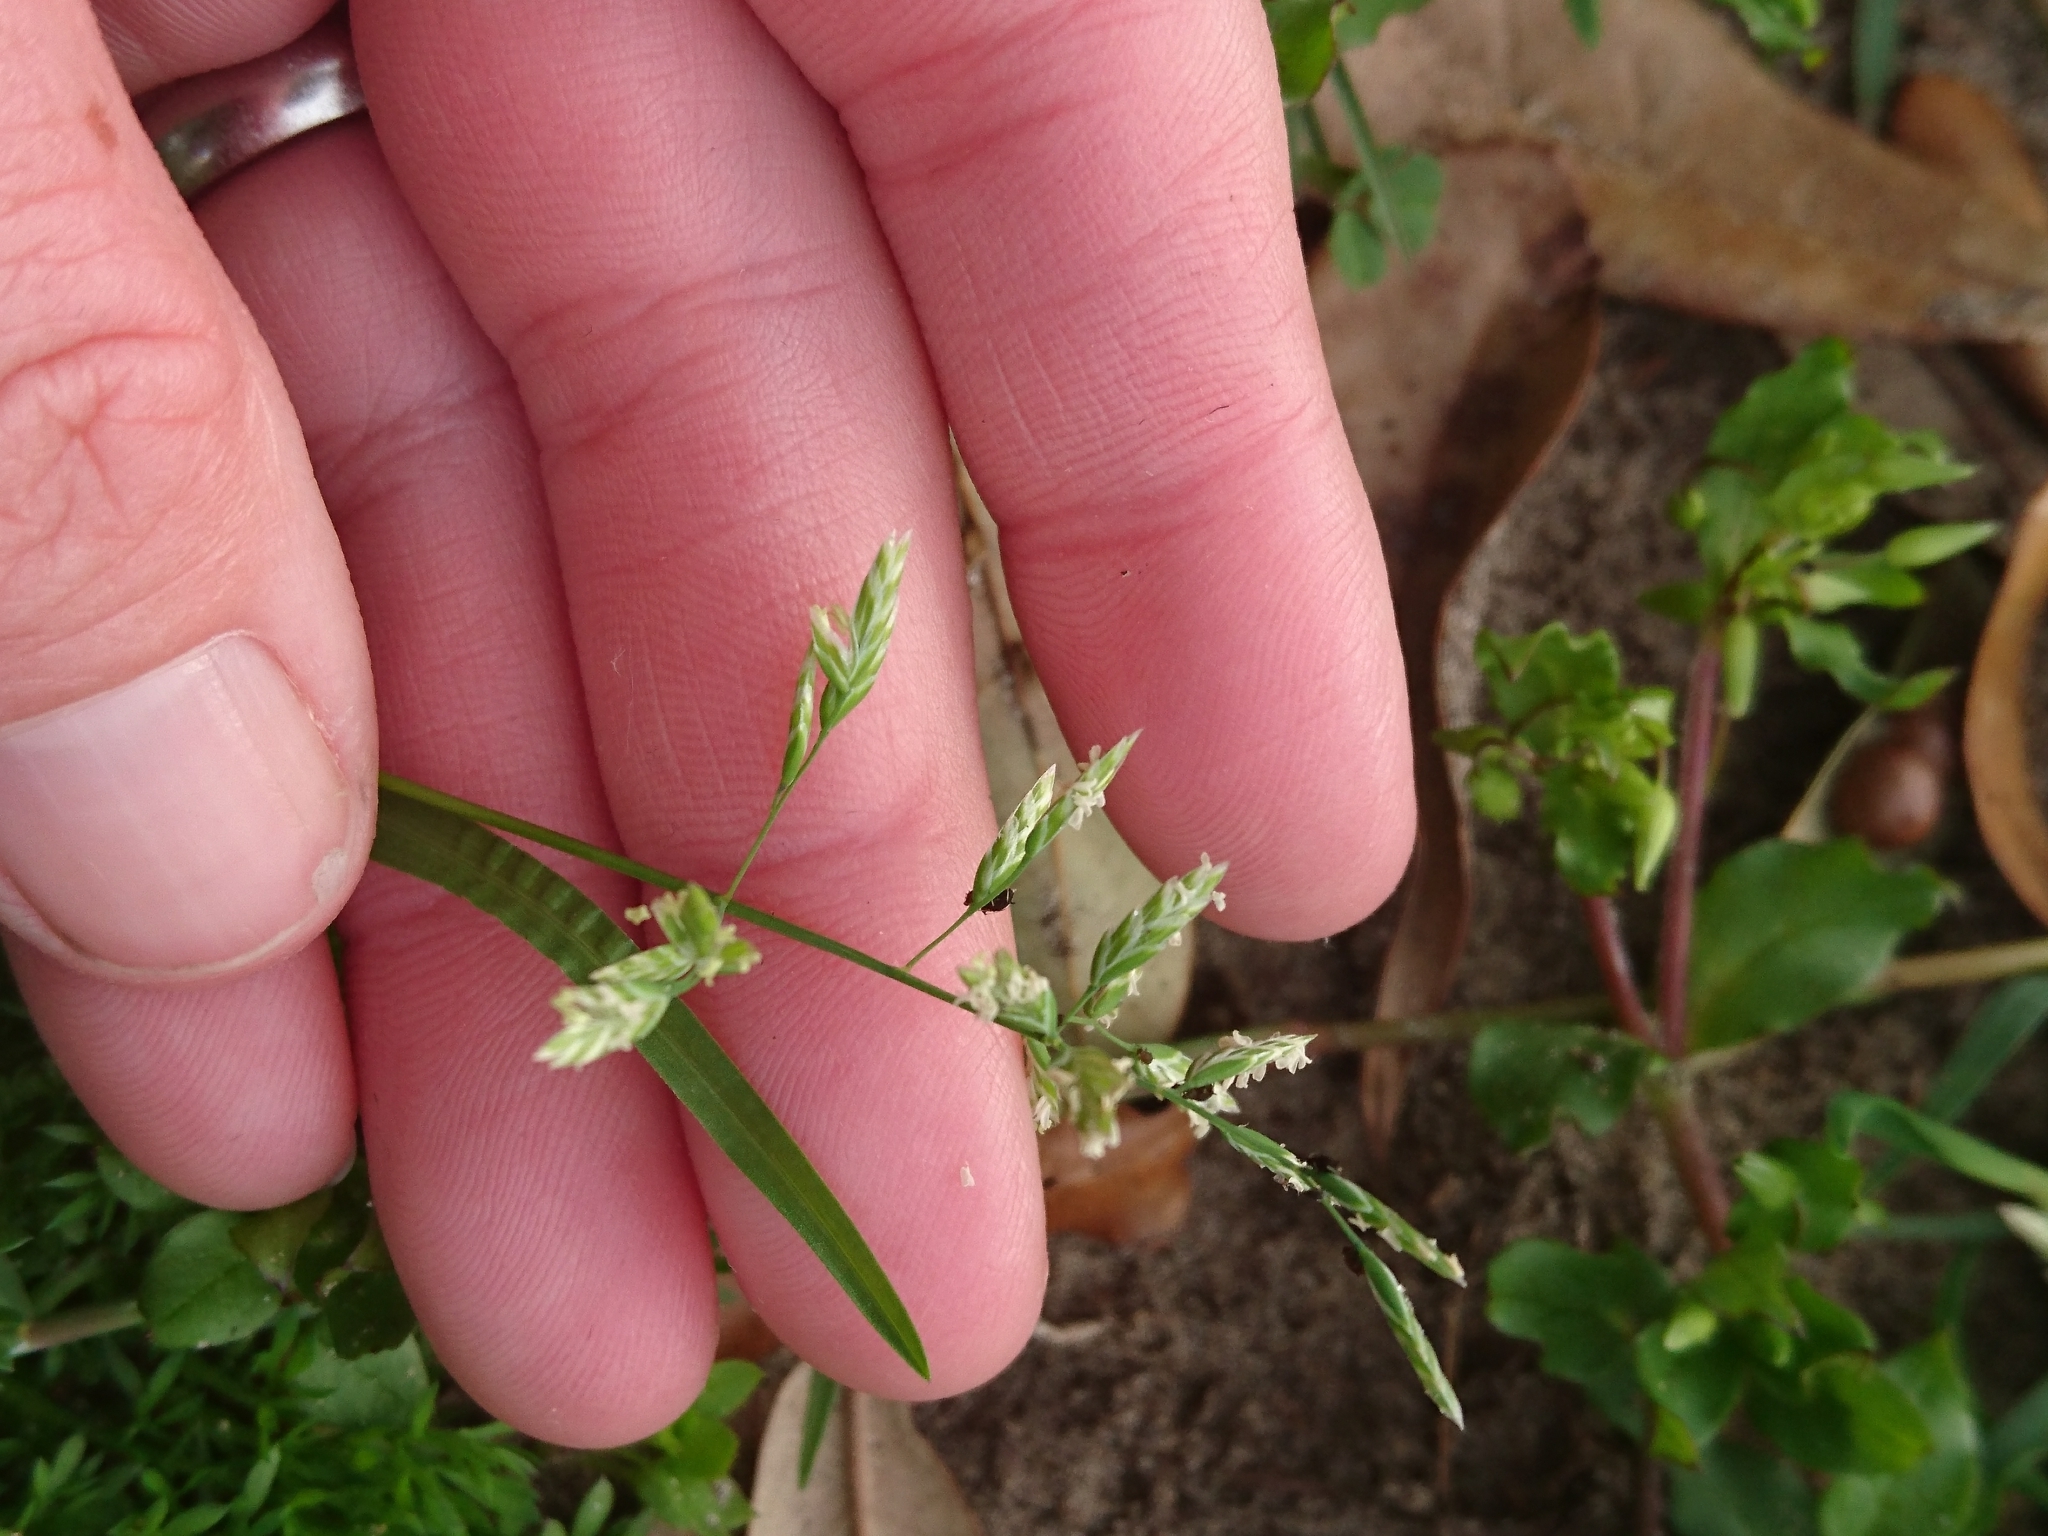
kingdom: Plantae
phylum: Tracheophyta
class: Liliopsida
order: Poales
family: Poaceae
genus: Poa
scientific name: Poa annua
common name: Annual bluegrass
